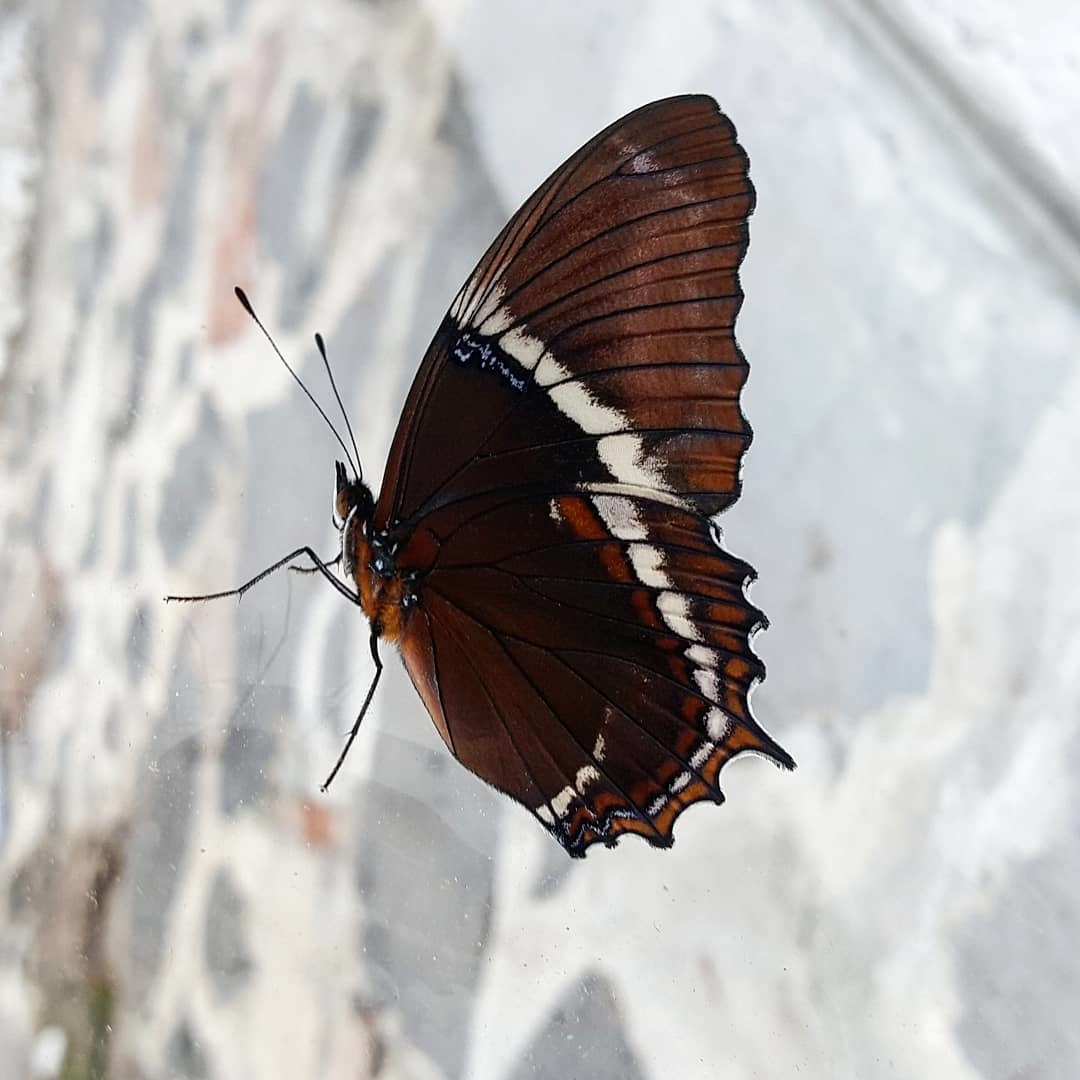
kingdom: Animalia
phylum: Arthropoda
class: Insecta
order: Lepidoptera
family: Nymphalidae
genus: Siproeta
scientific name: Siproeta epaphus
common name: Rusty-tipped page
